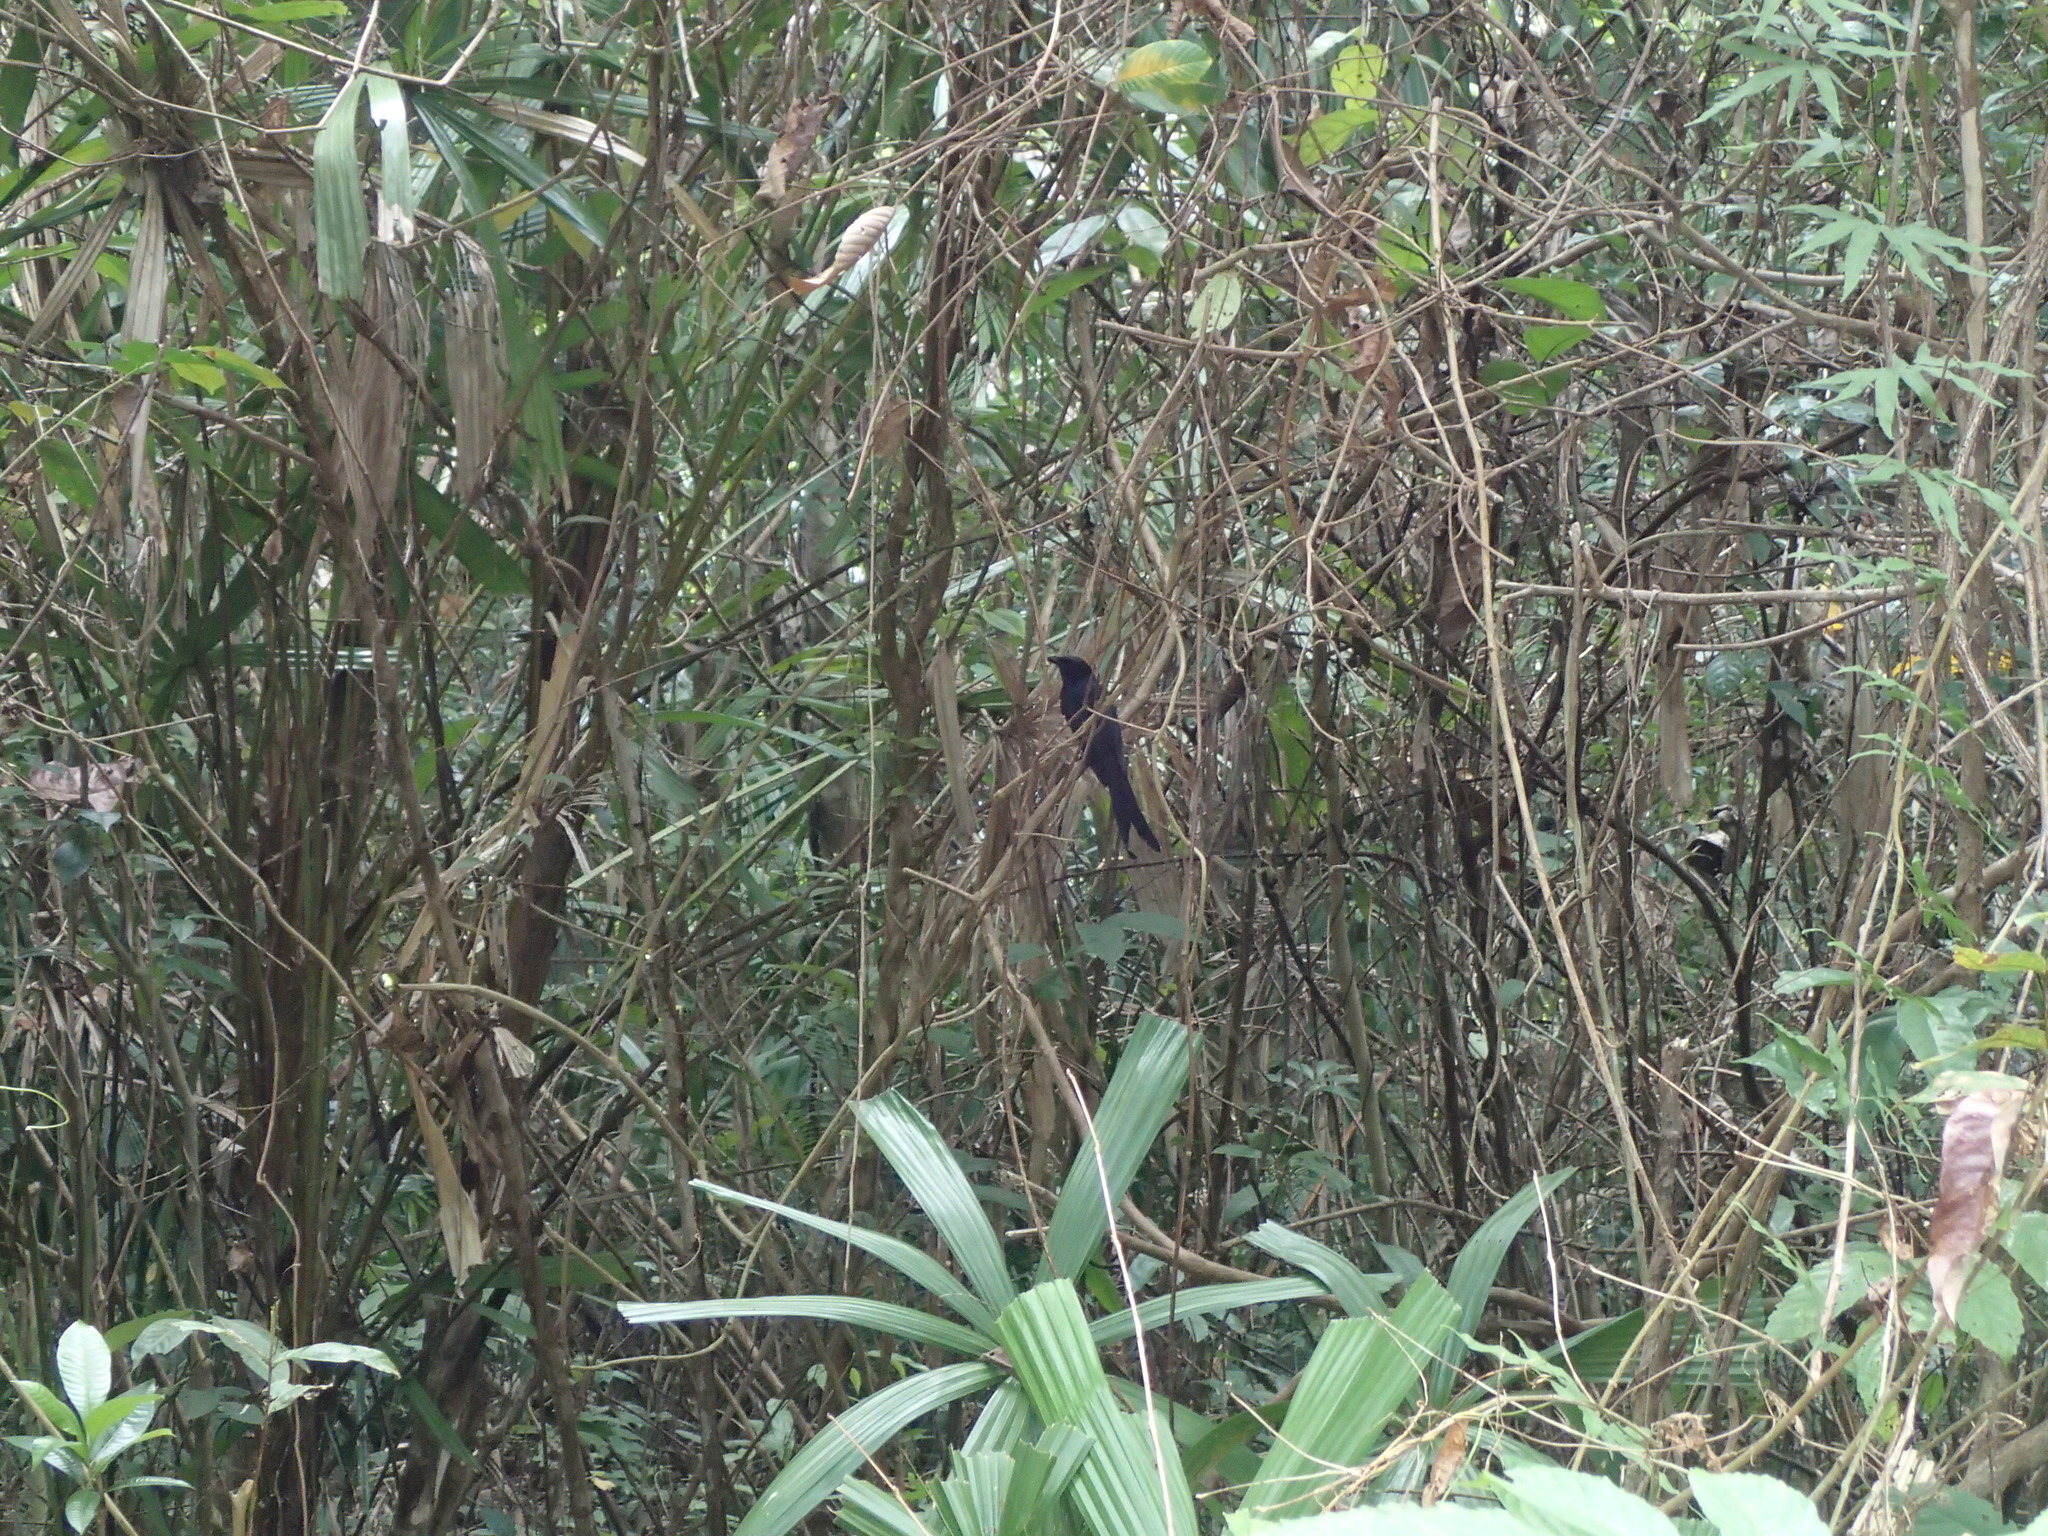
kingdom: Animalia
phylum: Chordata
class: Aves
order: Passeriformes
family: Dicruridae
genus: Dicrurus
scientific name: Dicrurus andamanensis
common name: Andaman drongo
